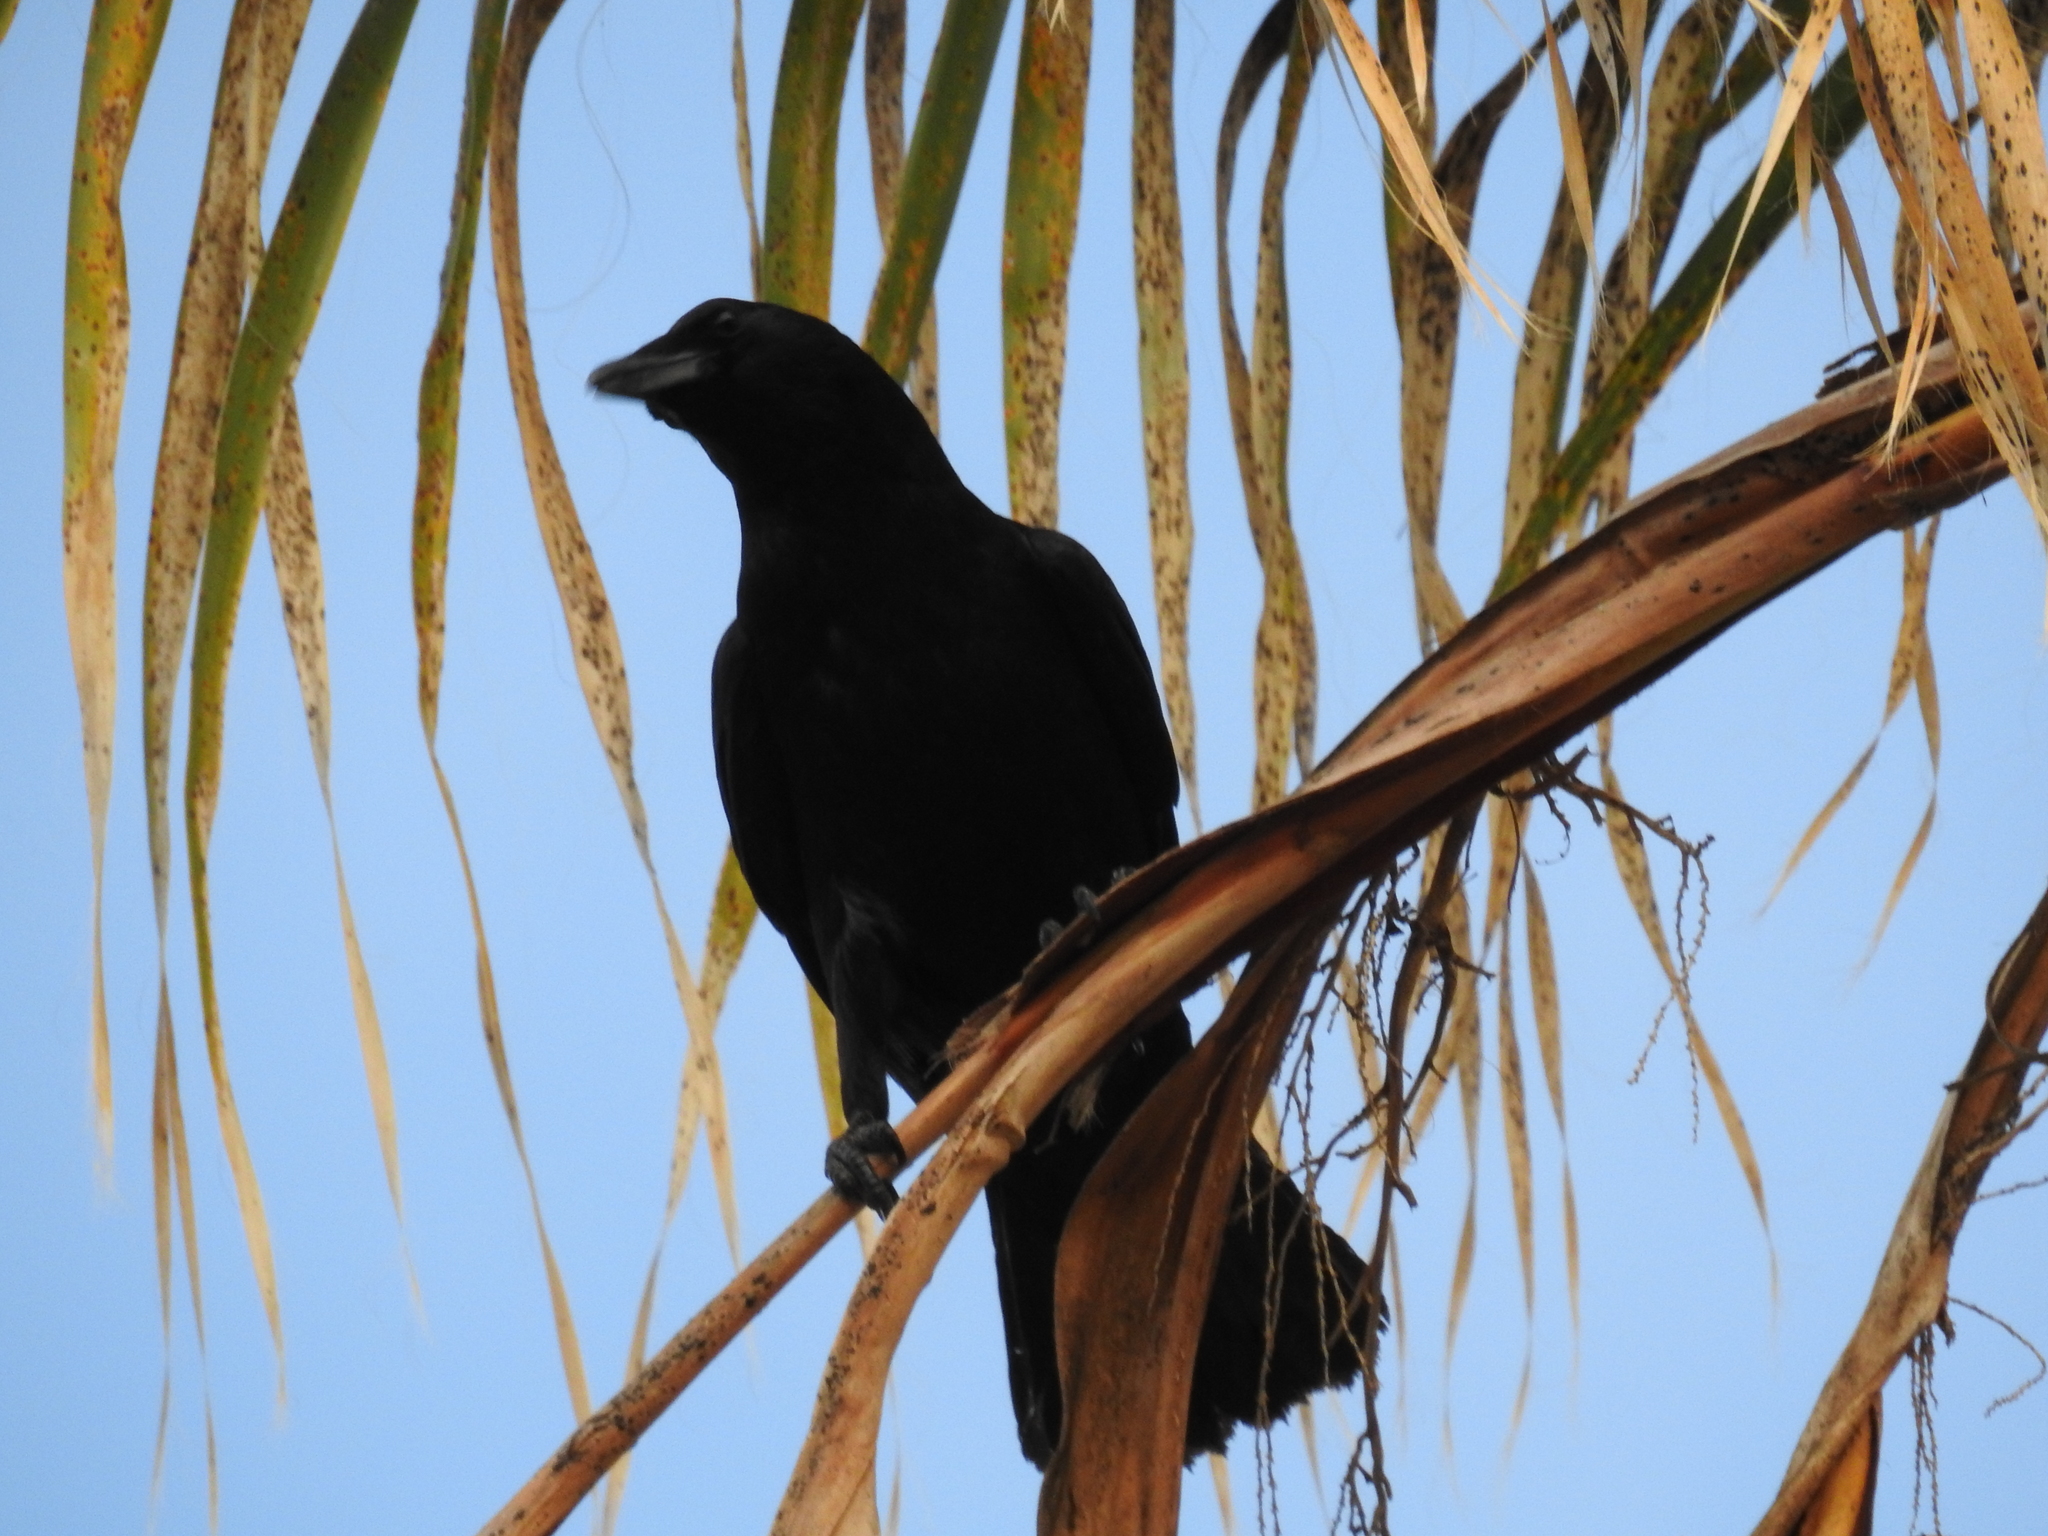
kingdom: Animalia
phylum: Chordata
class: Aves
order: Passeriformes
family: Corvidae
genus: Corvus
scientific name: Corvus brachyrhynchos
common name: American crow
